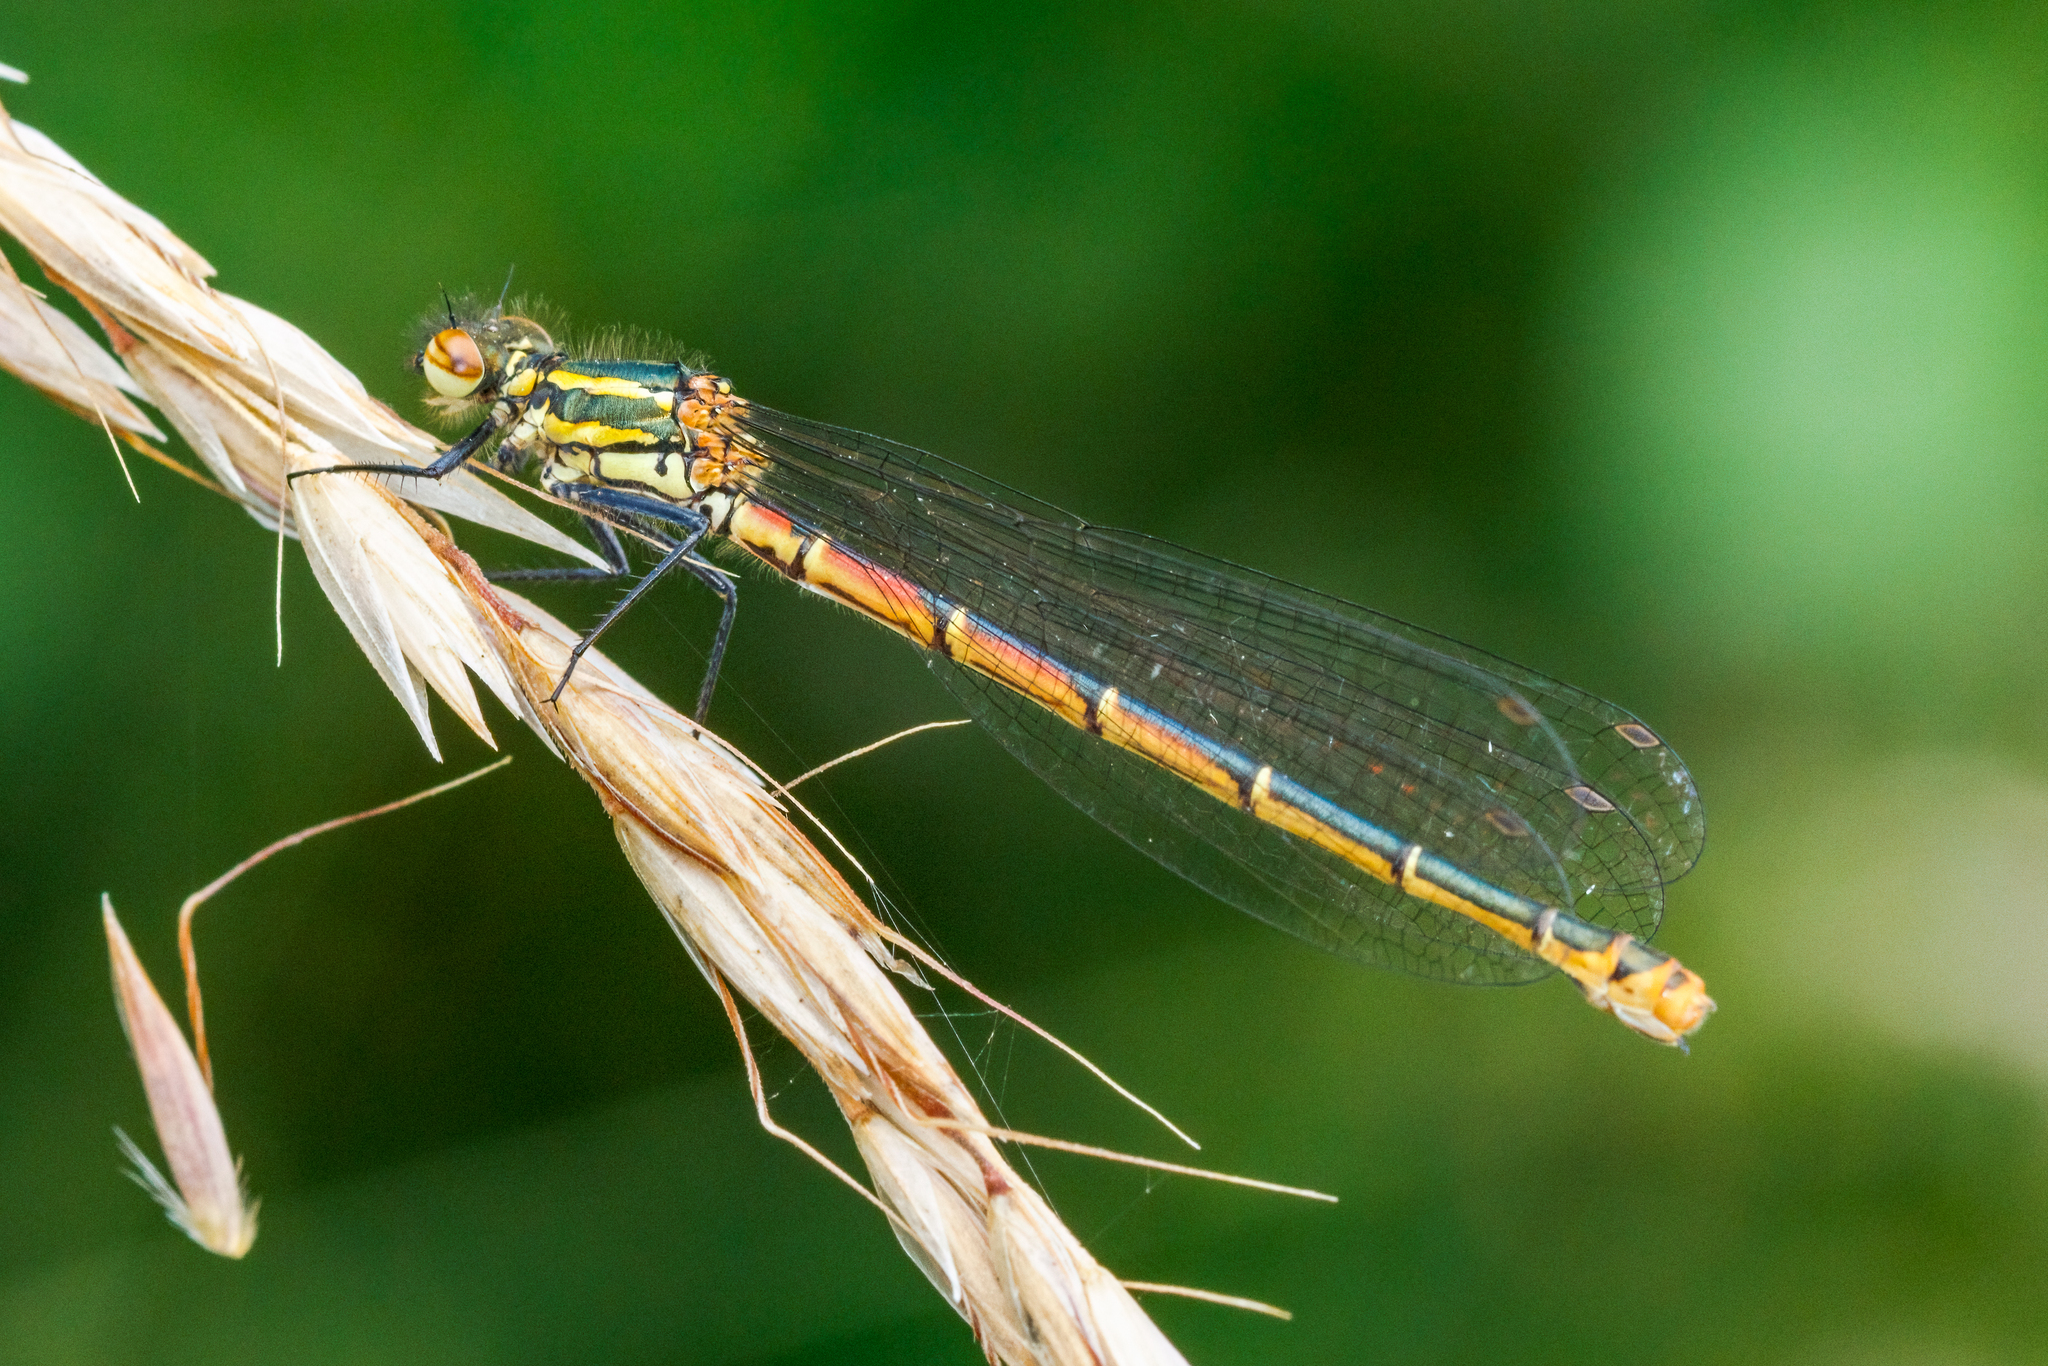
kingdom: Animalia
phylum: Arthropoda
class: Insecta
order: Odonata
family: Coenagrionidae
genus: Pyrrhosoma
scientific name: Pyrrhosoma nymphula
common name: Large red damsel
